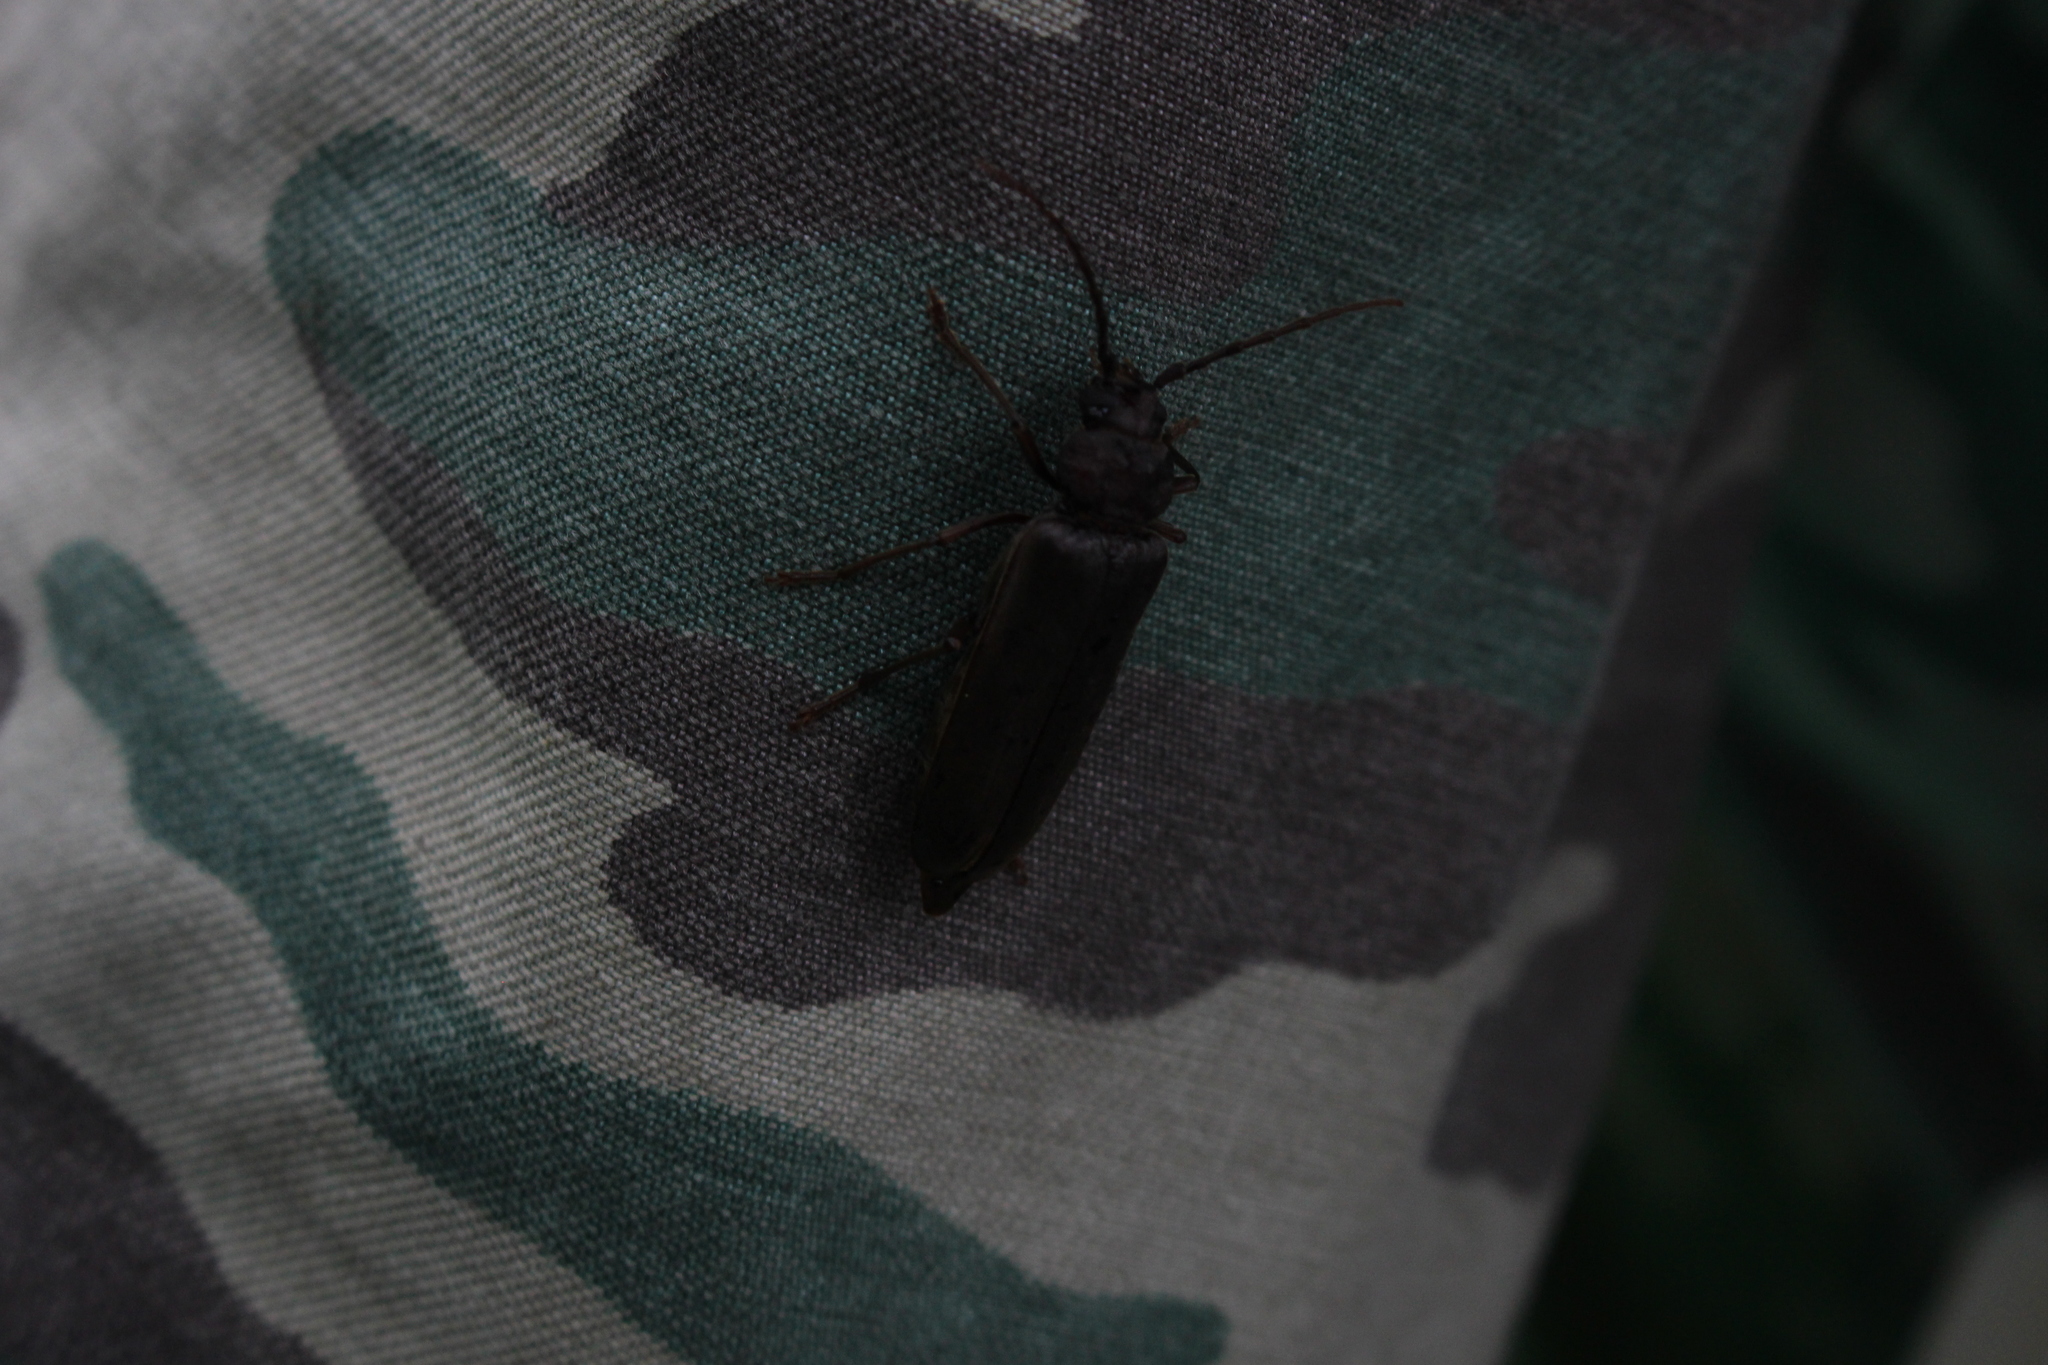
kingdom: Animalia
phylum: Arthropoda
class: Insecta
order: Coleoptera
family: Cerambycidae
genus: Arhopalus
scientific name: Arhopalus rusticus
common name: Rust pine borer
